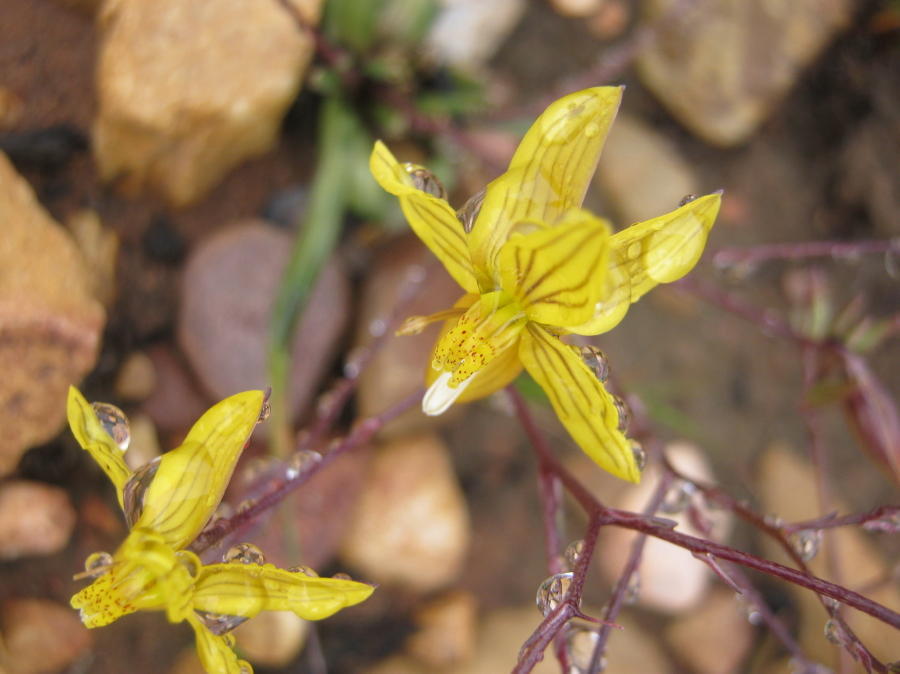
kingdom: Plantae
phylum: Tracheophyta
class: Liliopsida
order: Asparagales
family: Tecophilaeaceae
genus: Cyanella
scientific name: Cyanella lutea
